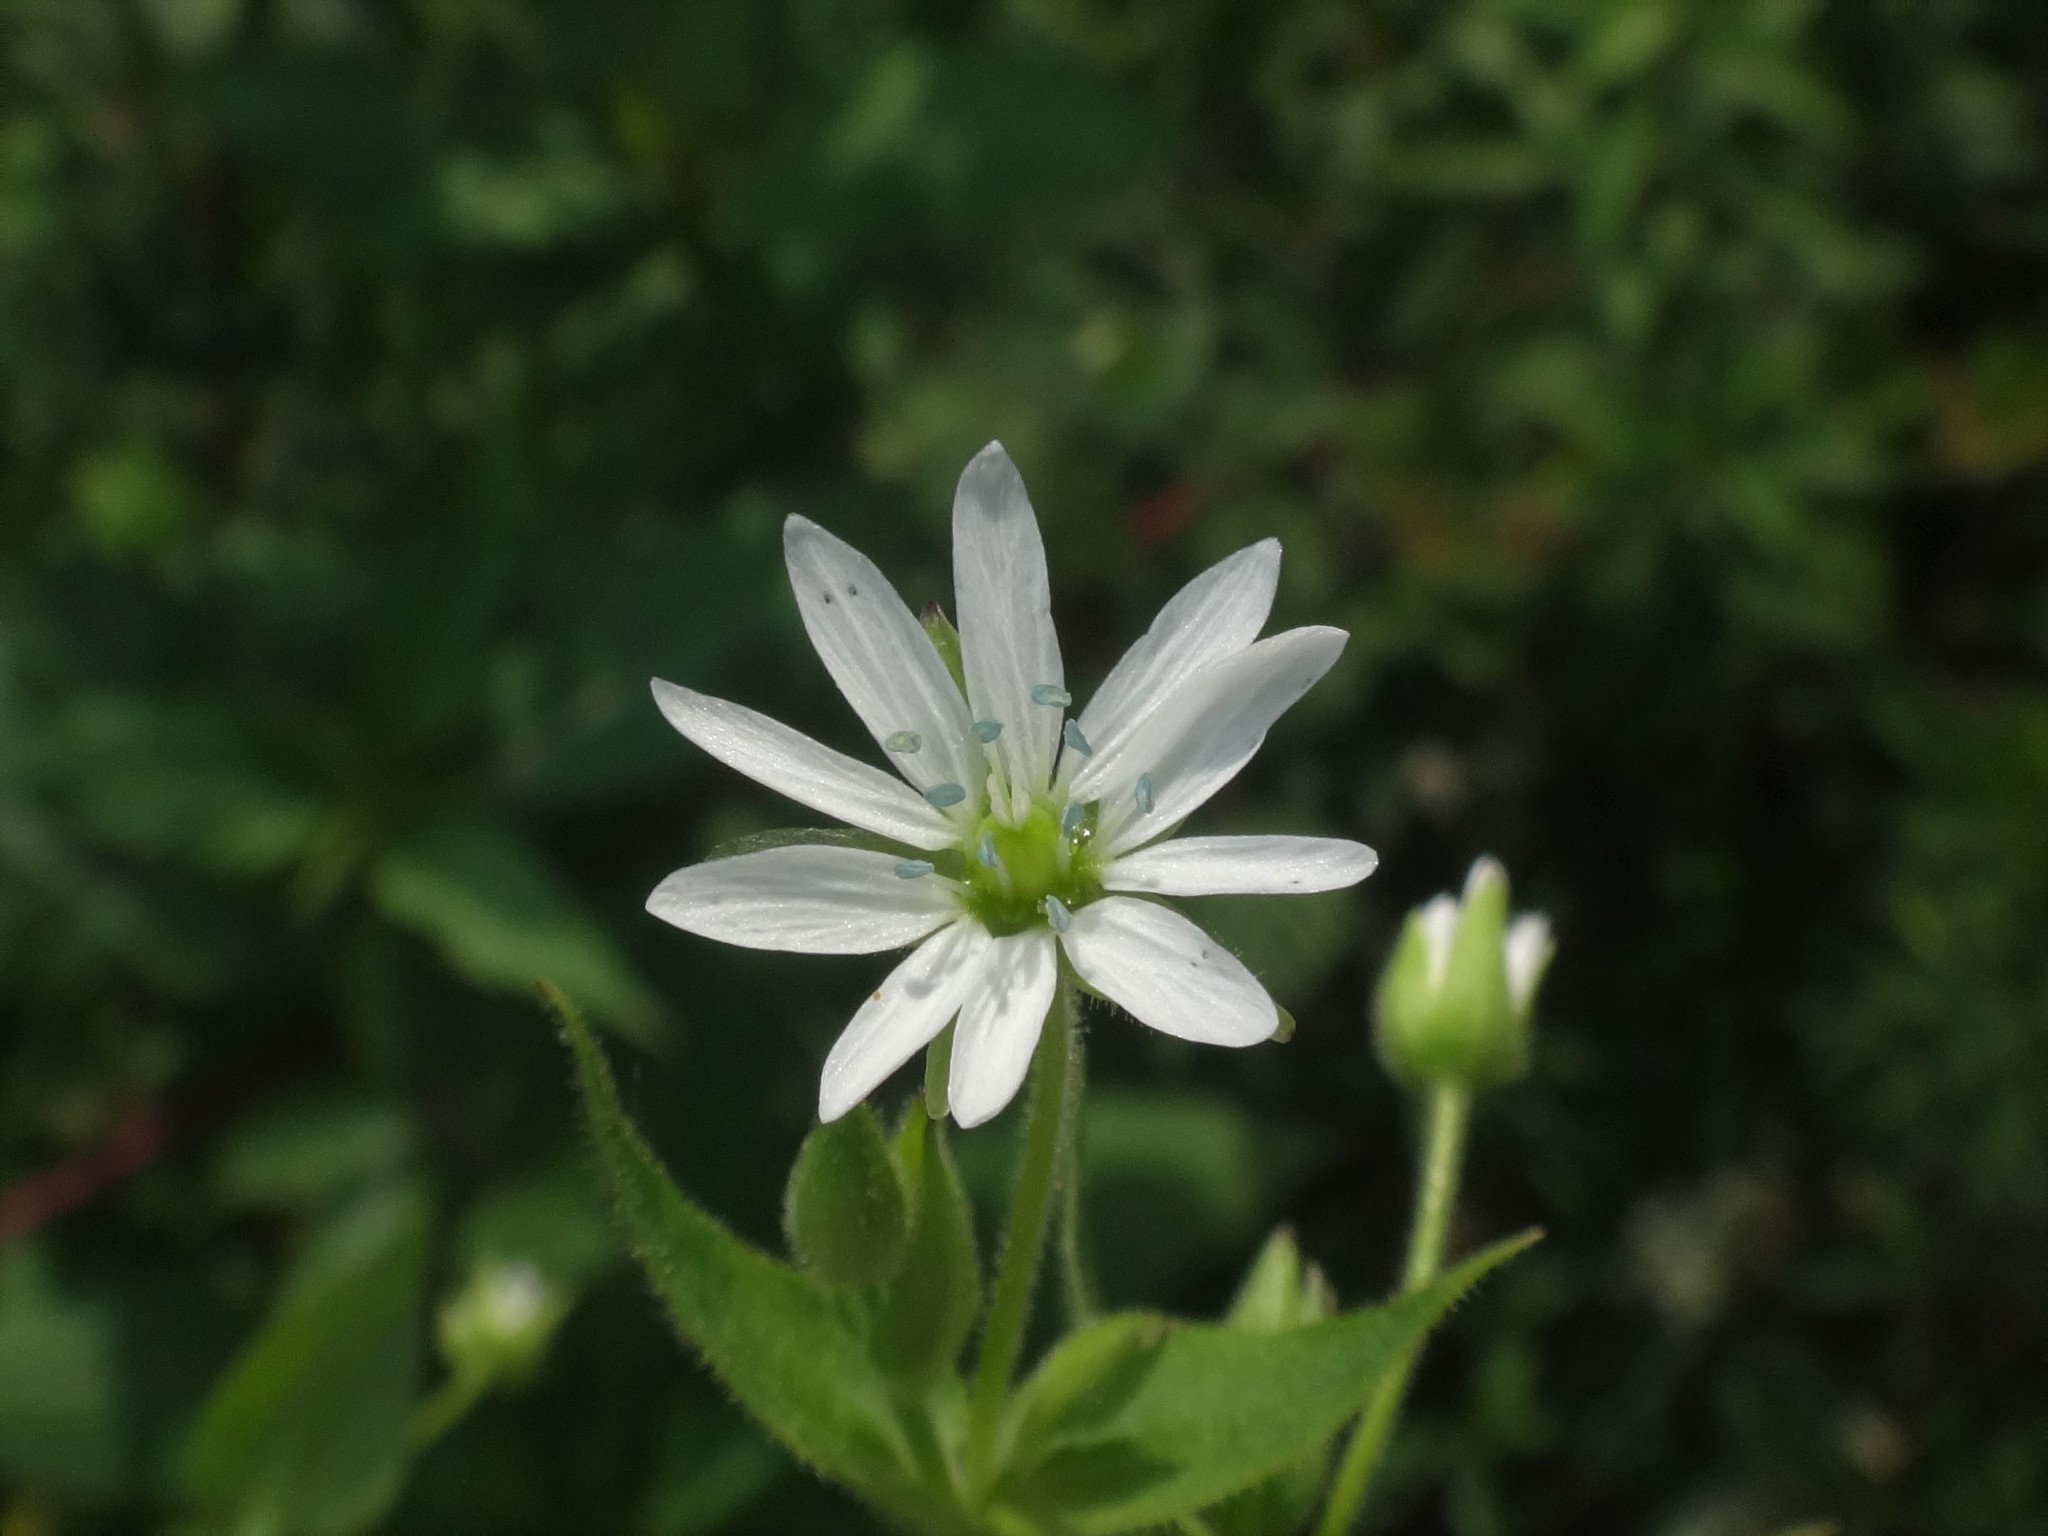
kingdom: Plantae
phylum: Tracheophyta
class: Magnoliopsida
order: Caryophyllales
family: Caryophyllaceae
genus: Stellaria
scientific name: Stellaria aquatica
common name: Water chickweed
